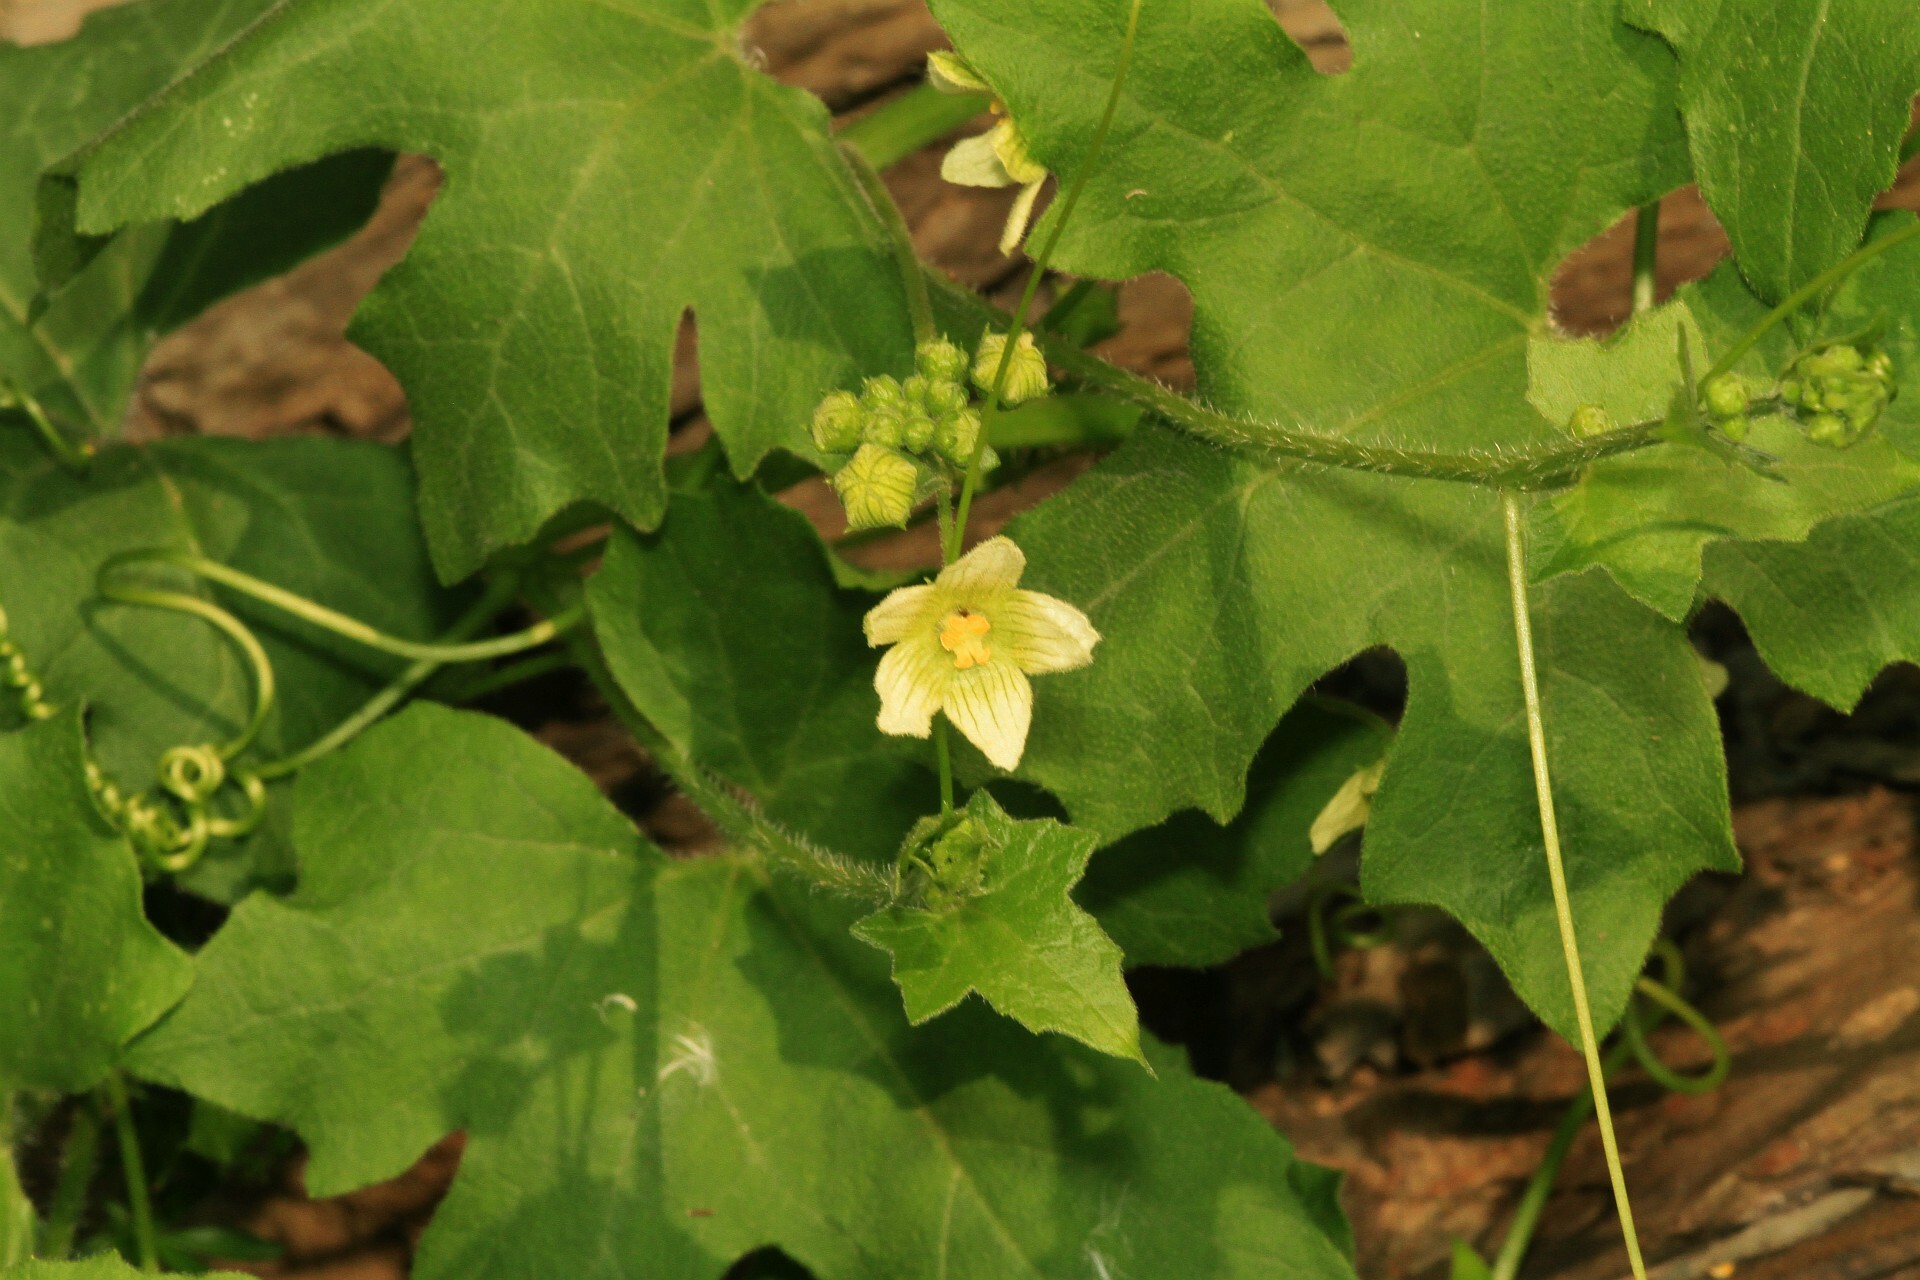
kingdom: Plantae
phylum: Tracheophyta
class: Magnoliopsida
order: Cucurbitales
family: Cucurbitaceae
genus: Bryonia
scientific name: Bryonia dioica
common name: White bryony
